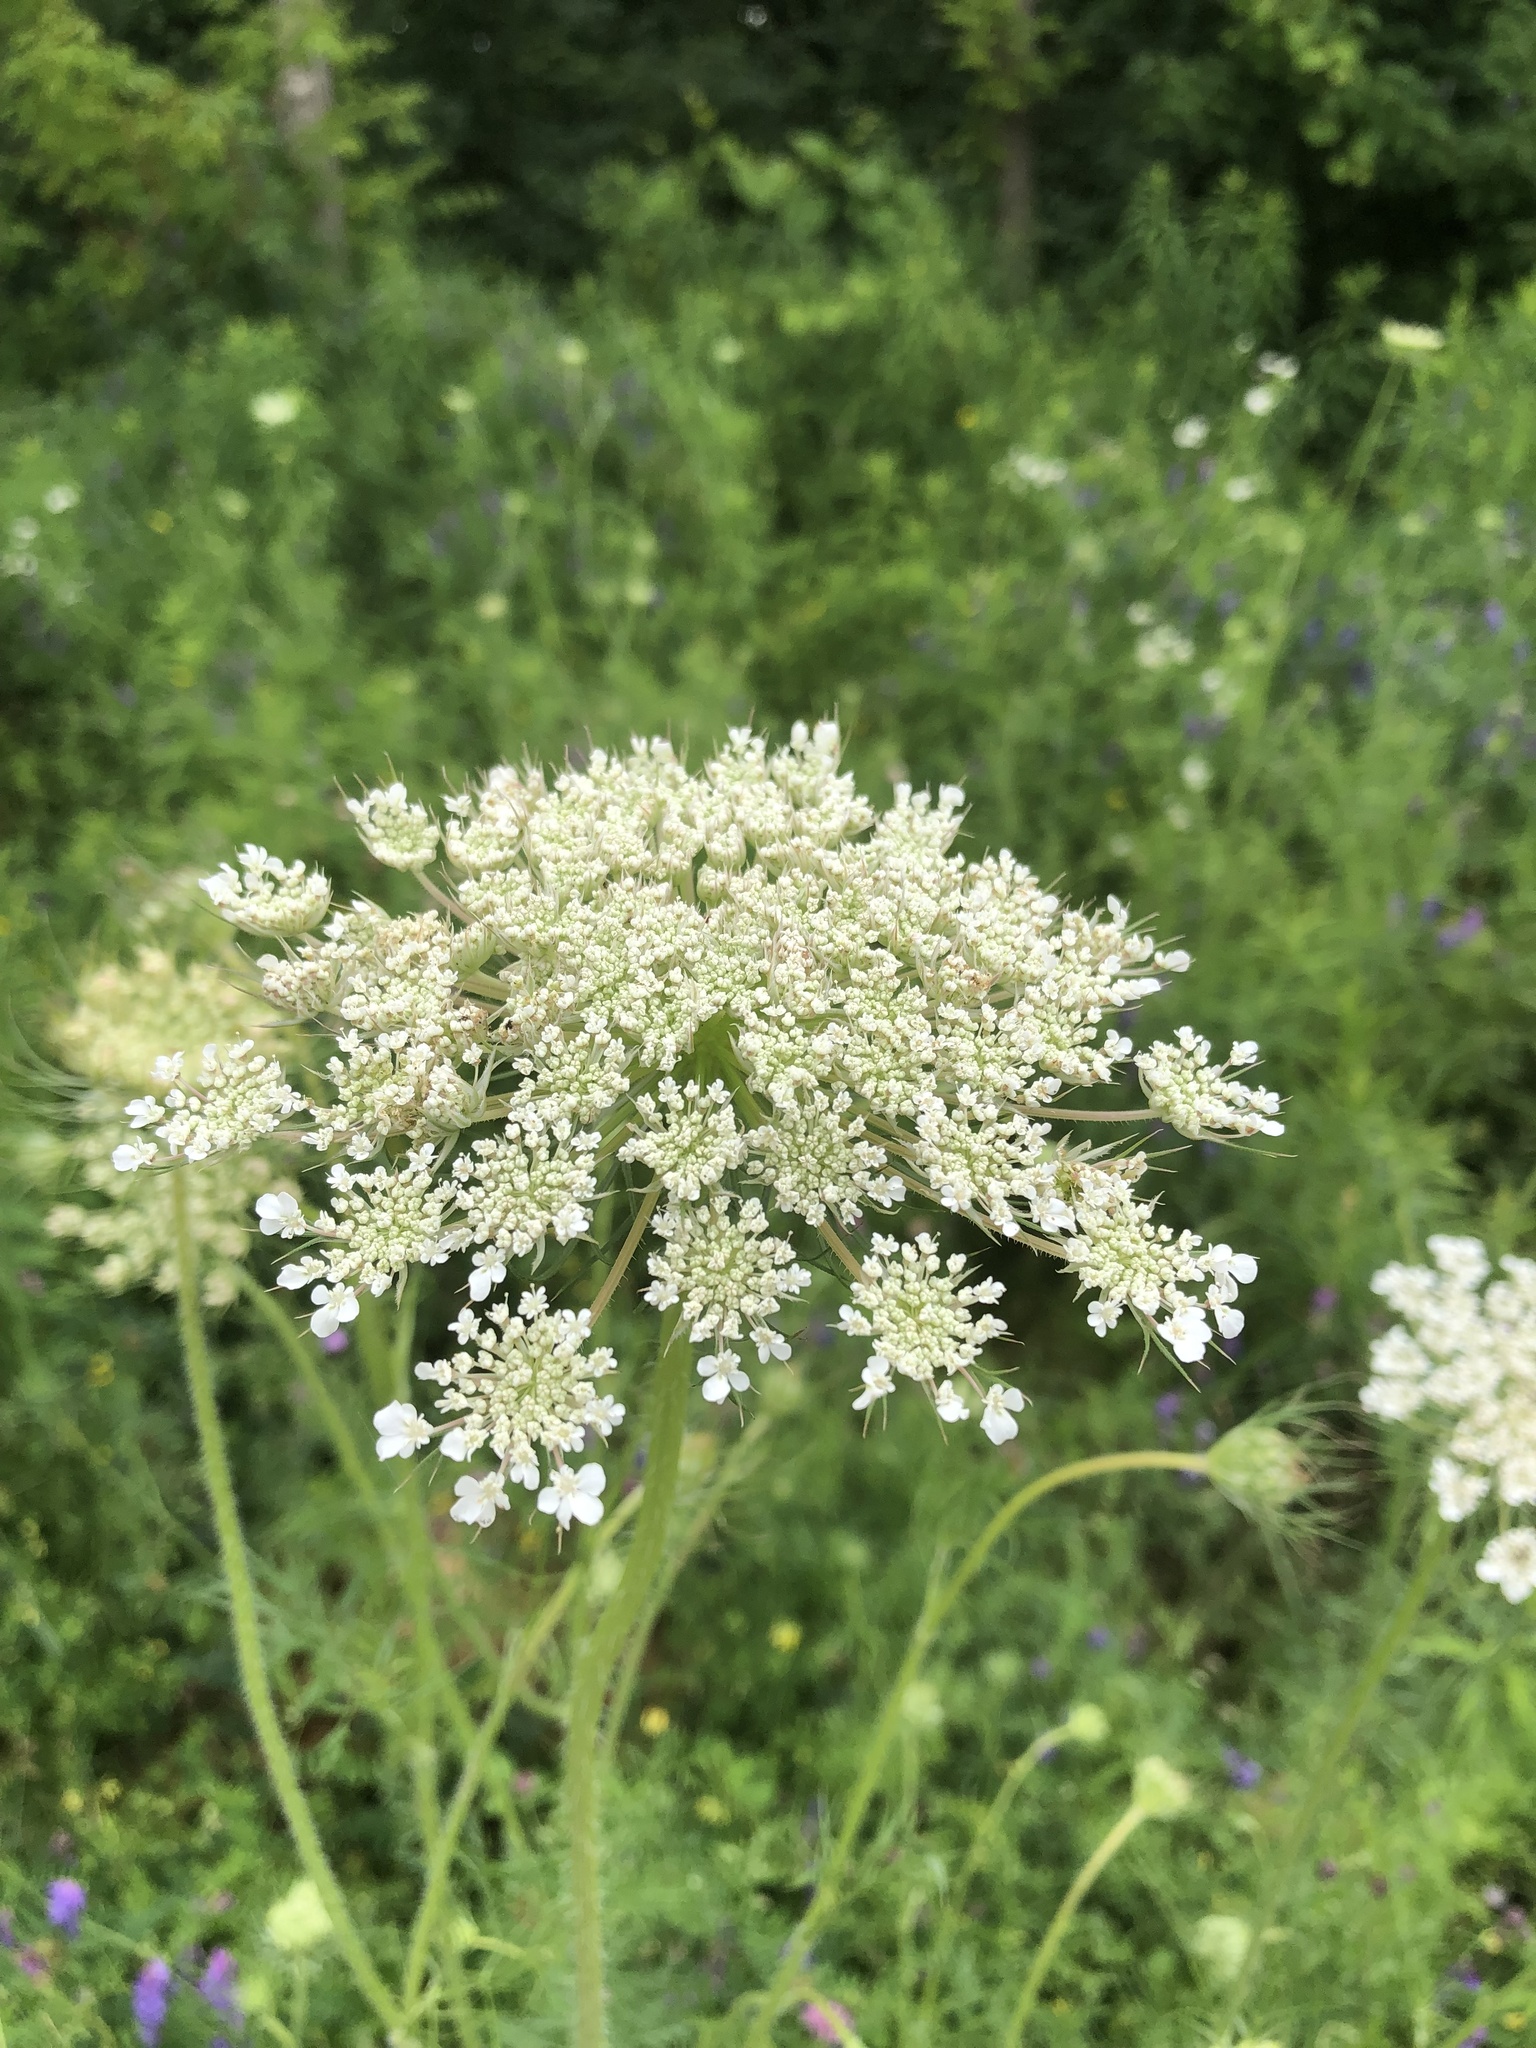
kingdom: Plantae
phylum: Tracheophyta
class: Magnoliopsida
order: Apiales
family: Apiaceae
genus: Daucus
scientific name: Daucus carota
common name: Wild carrot
